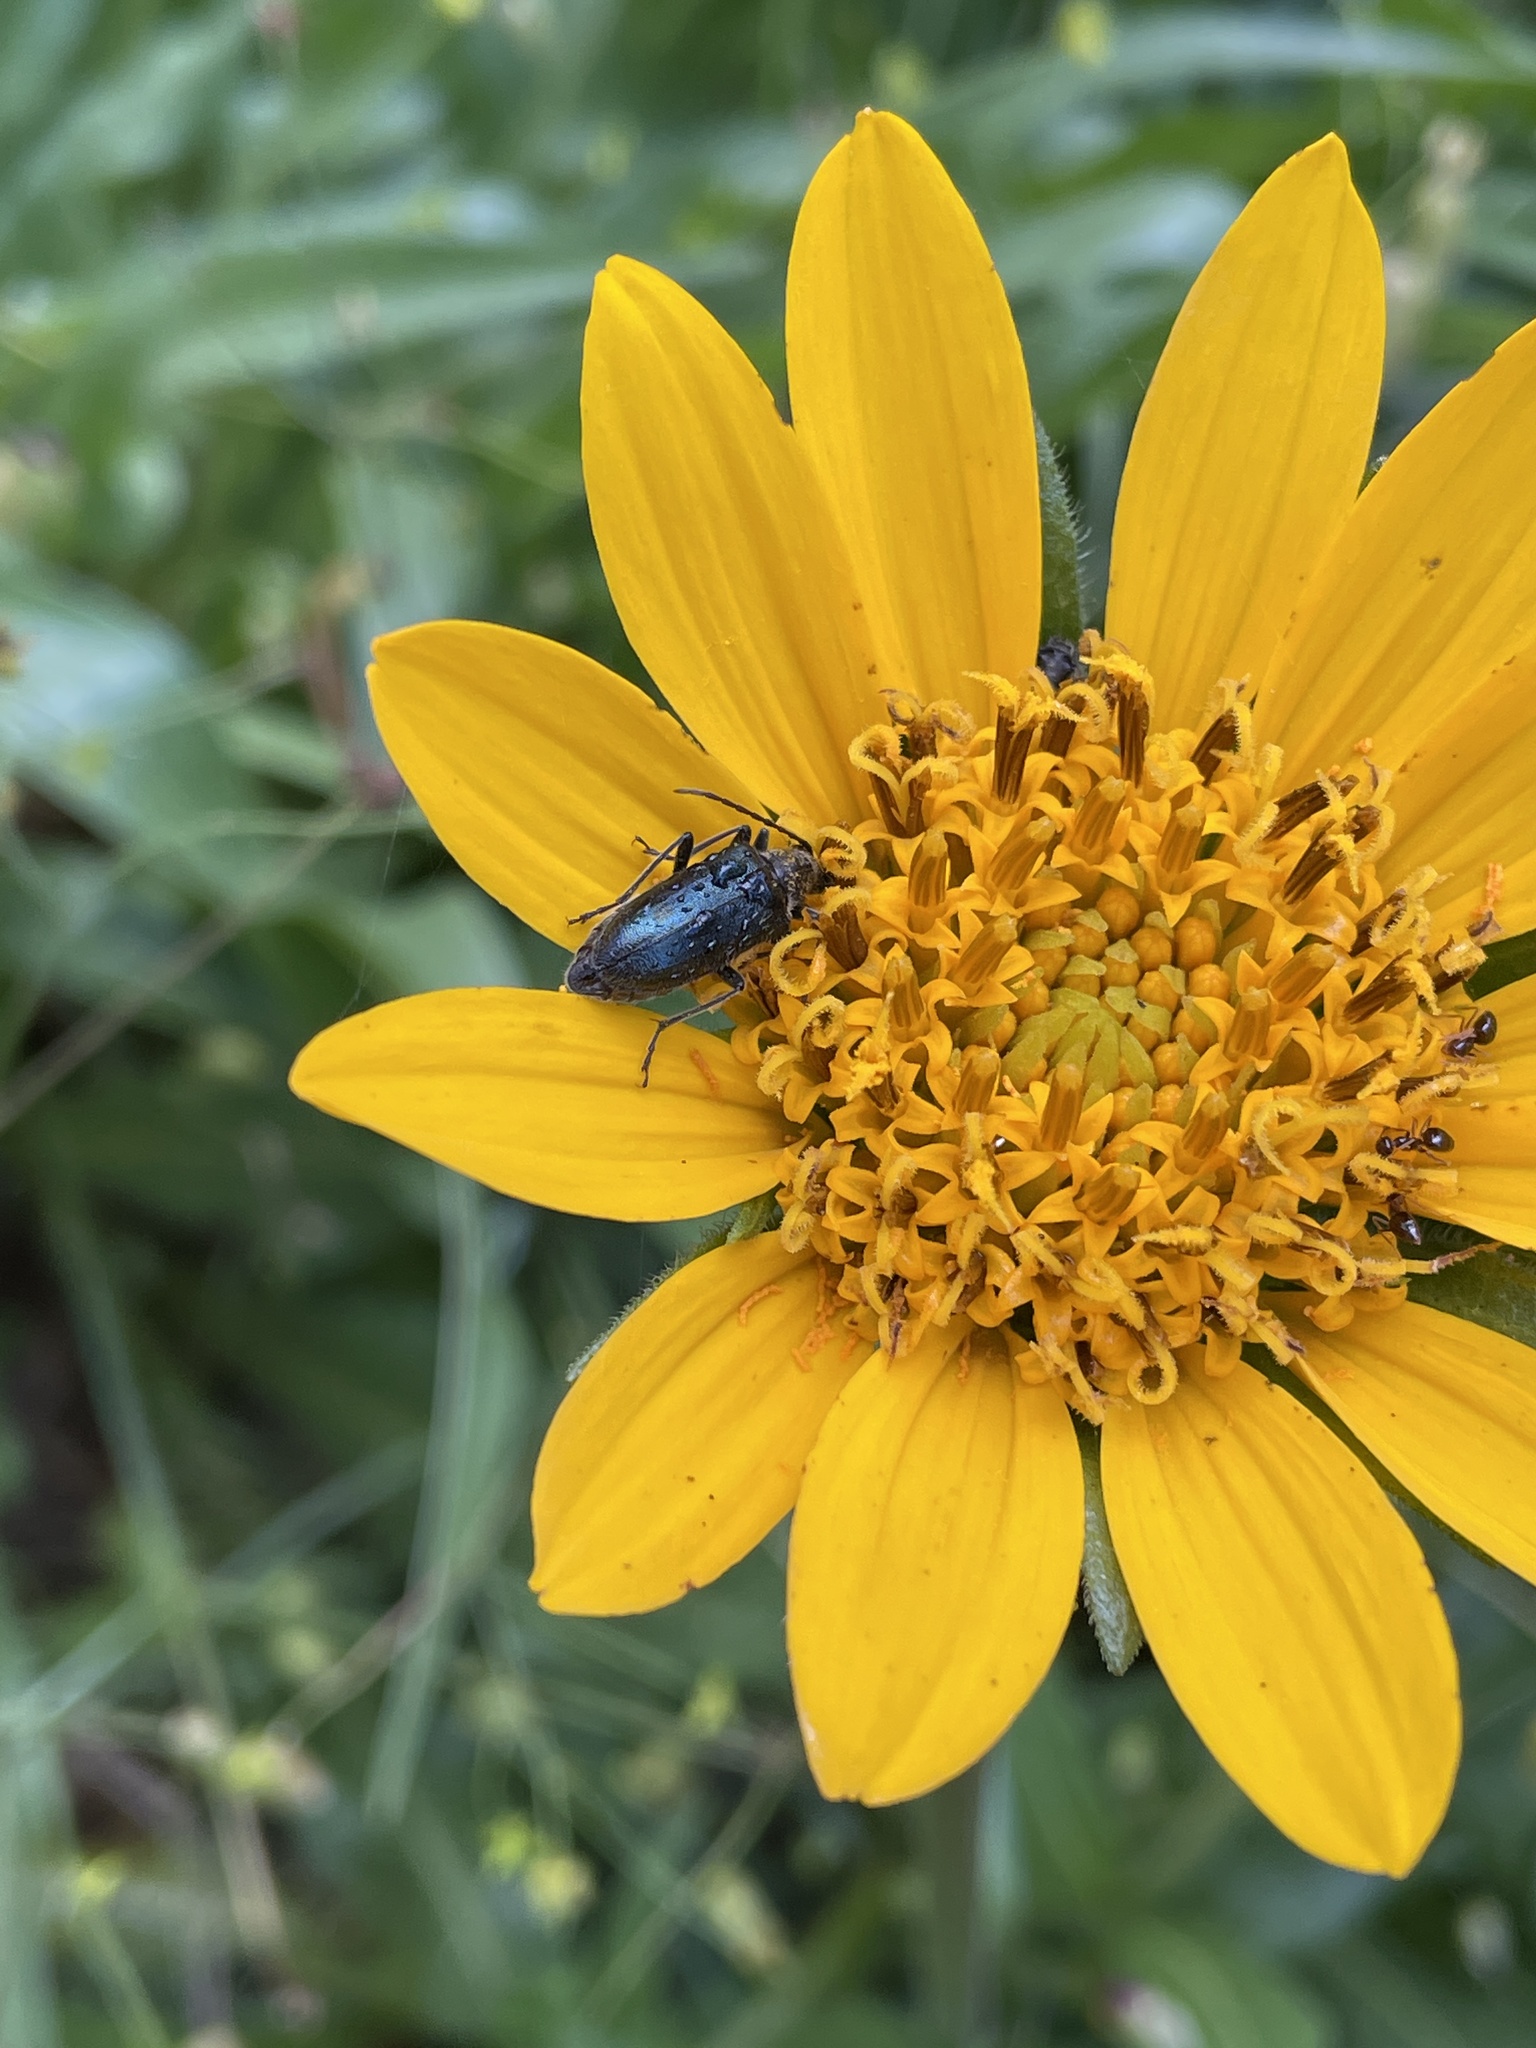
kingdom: Animalia
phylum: Arthropoda
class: Insecta
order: Coleoptera
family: Cerambycidae
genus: Brachysomida
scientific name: Brachysomida californica
